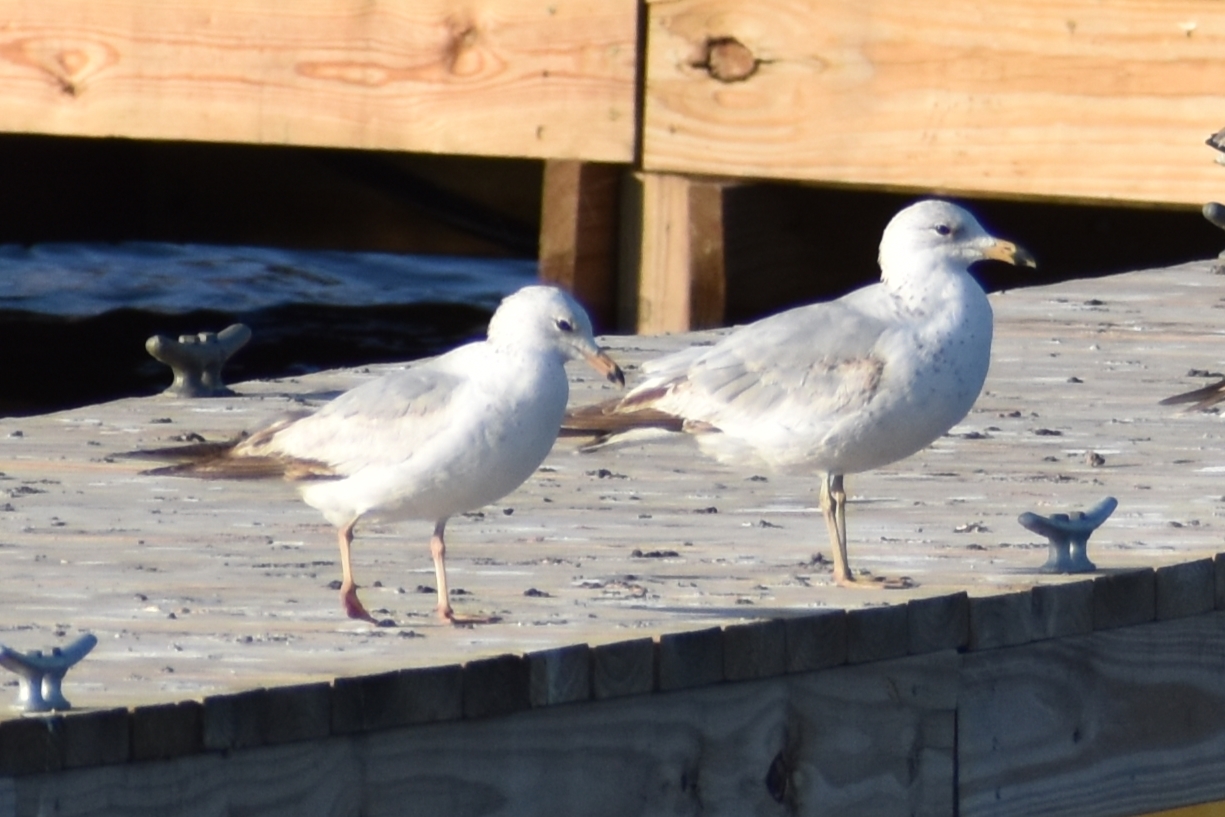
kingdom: Animalia
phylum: Chordata
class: Aves
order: Charadriiformes
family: Laridae
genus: Larus
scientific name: Larus delawarensis
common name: Ring-billed gull
